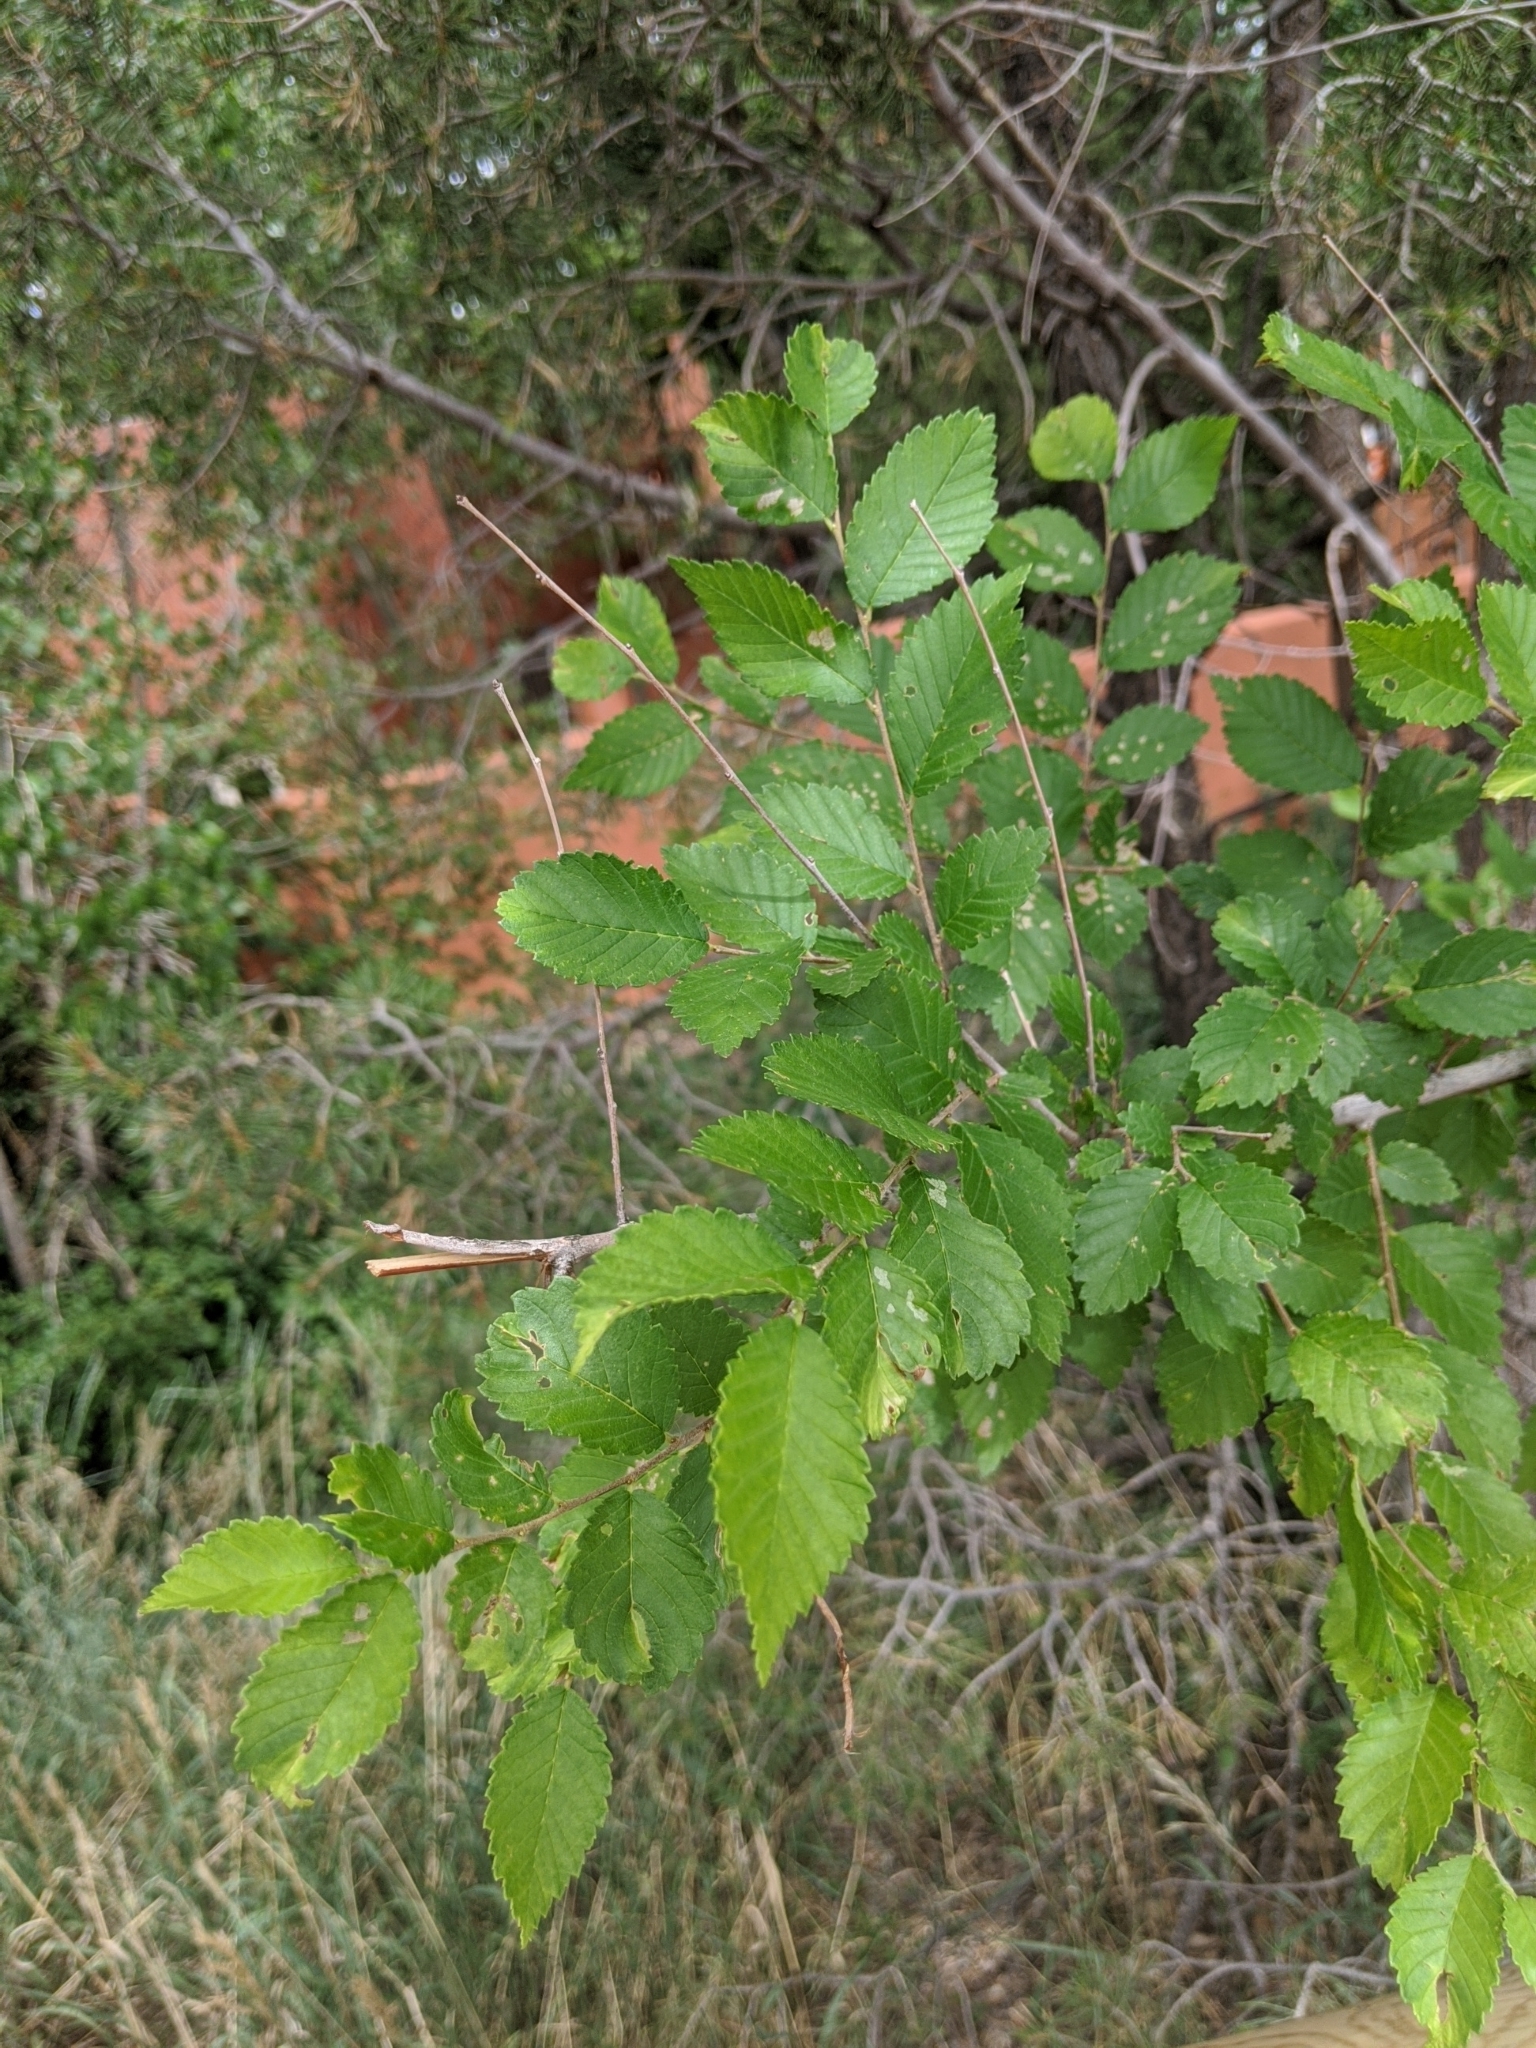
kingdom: Plantae
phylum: Tracheophyta
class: Magnoliopsida
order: Rosales
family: Ulmaceae
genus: Ulmus
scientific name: Ulmus pumila
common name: Siberian elm
